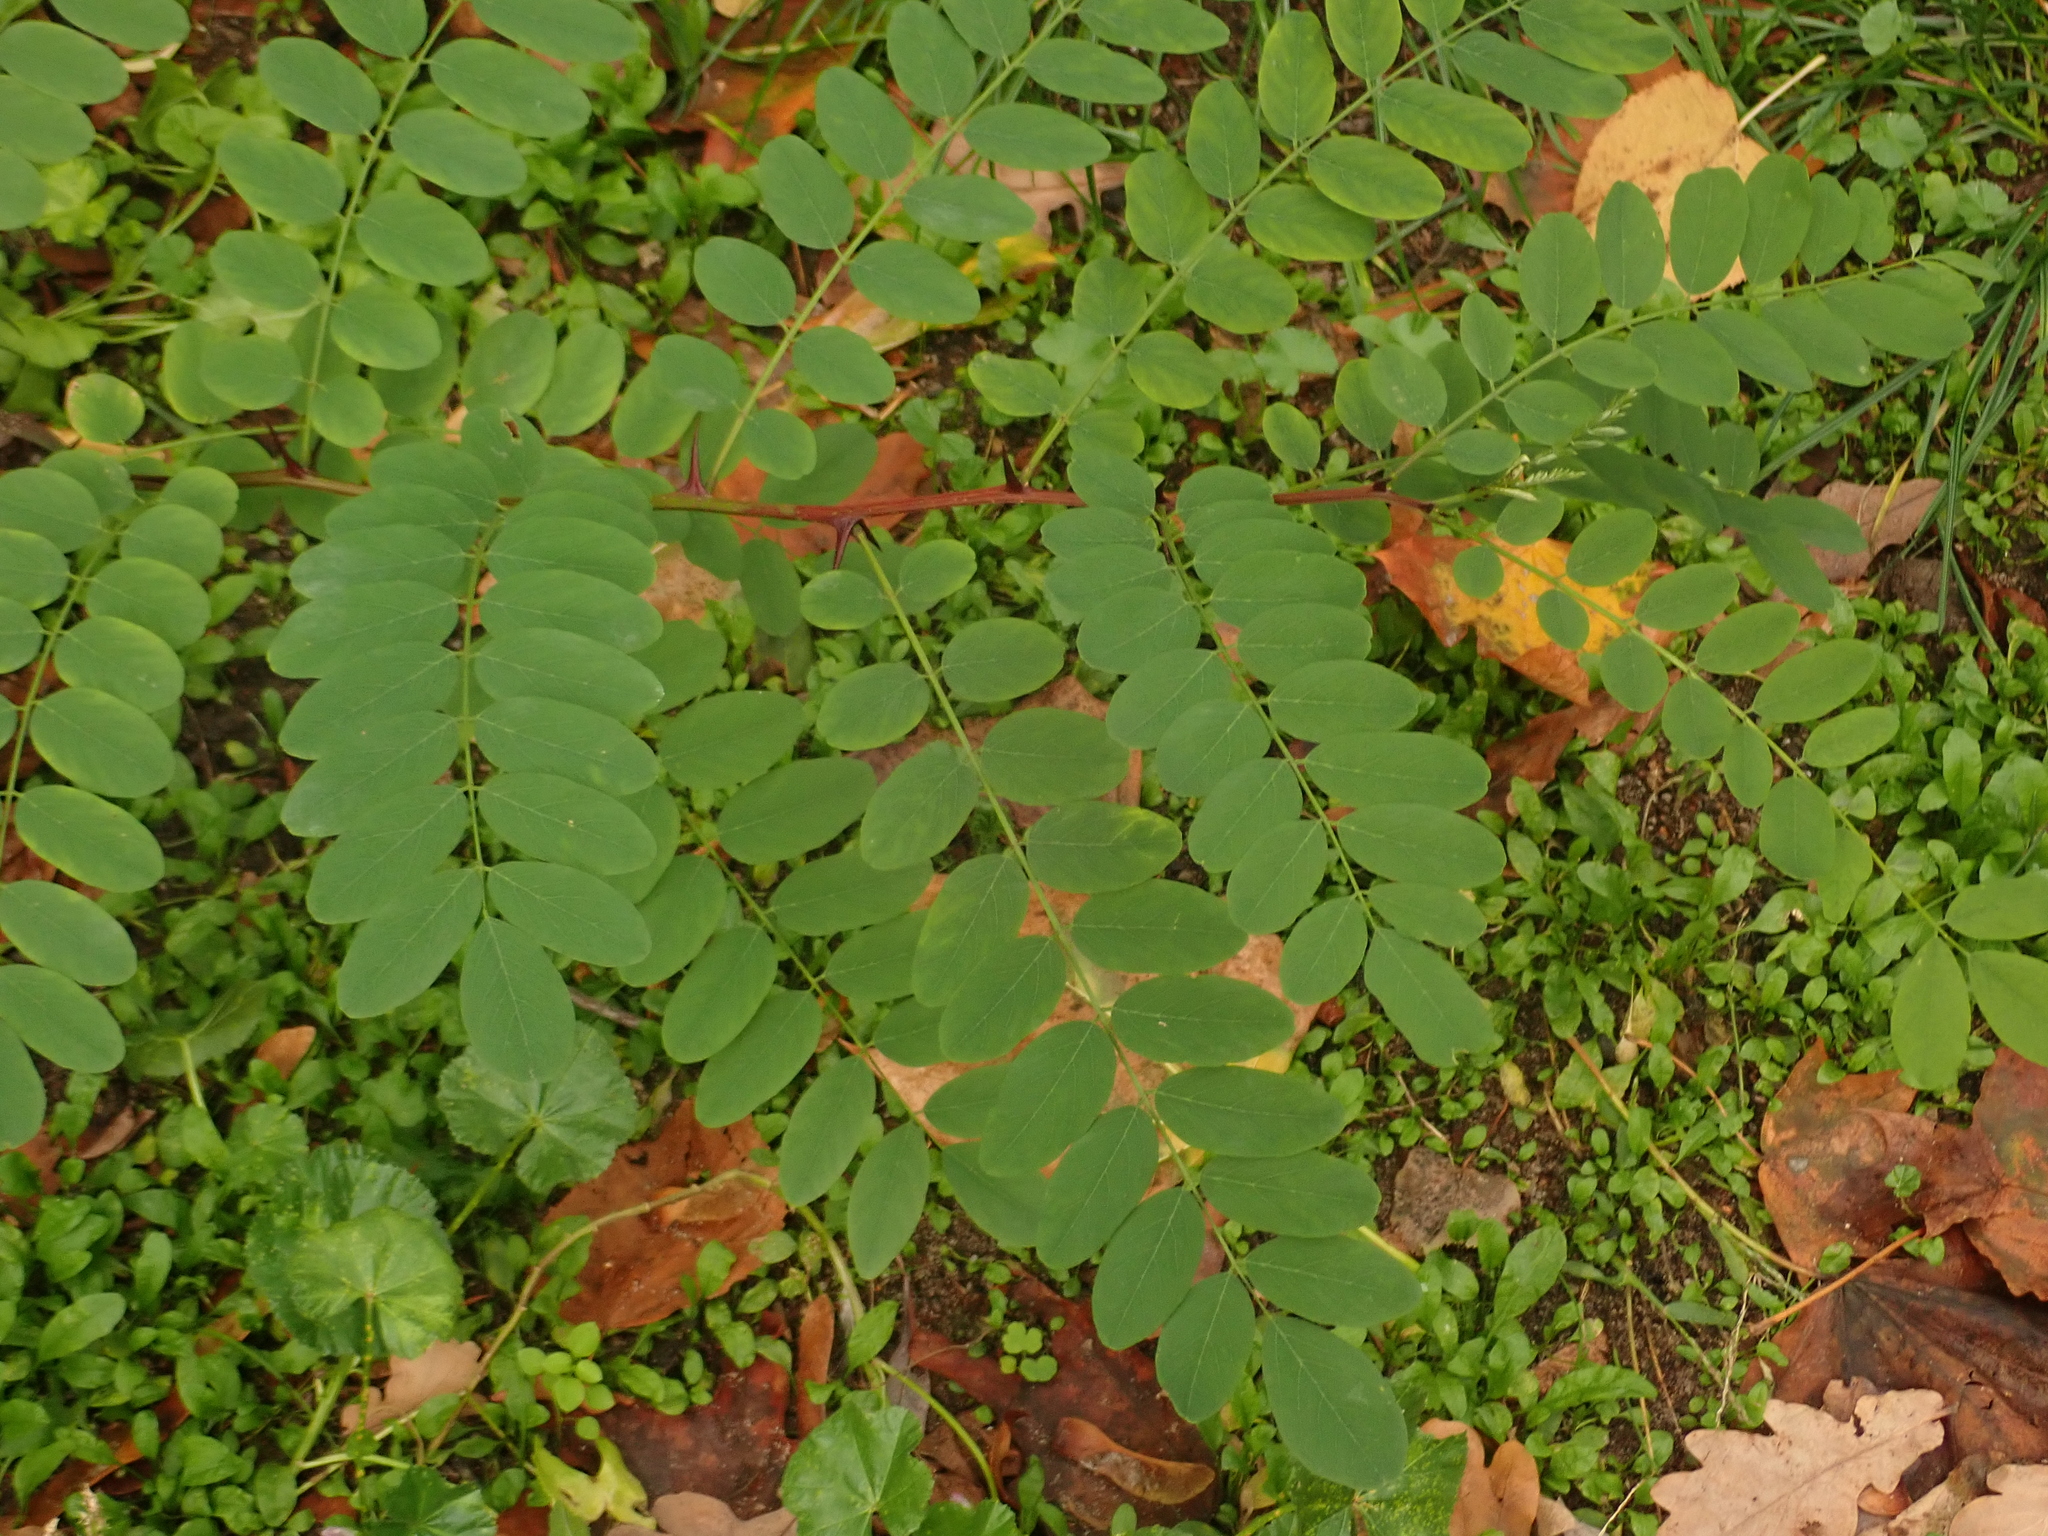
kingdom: Plantae
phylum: Tracheophyta
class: Magnoliopsida
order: Fabales
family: Fabaceae
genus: Robinia
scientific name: Robinia pseudoacacia
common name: Black locust
